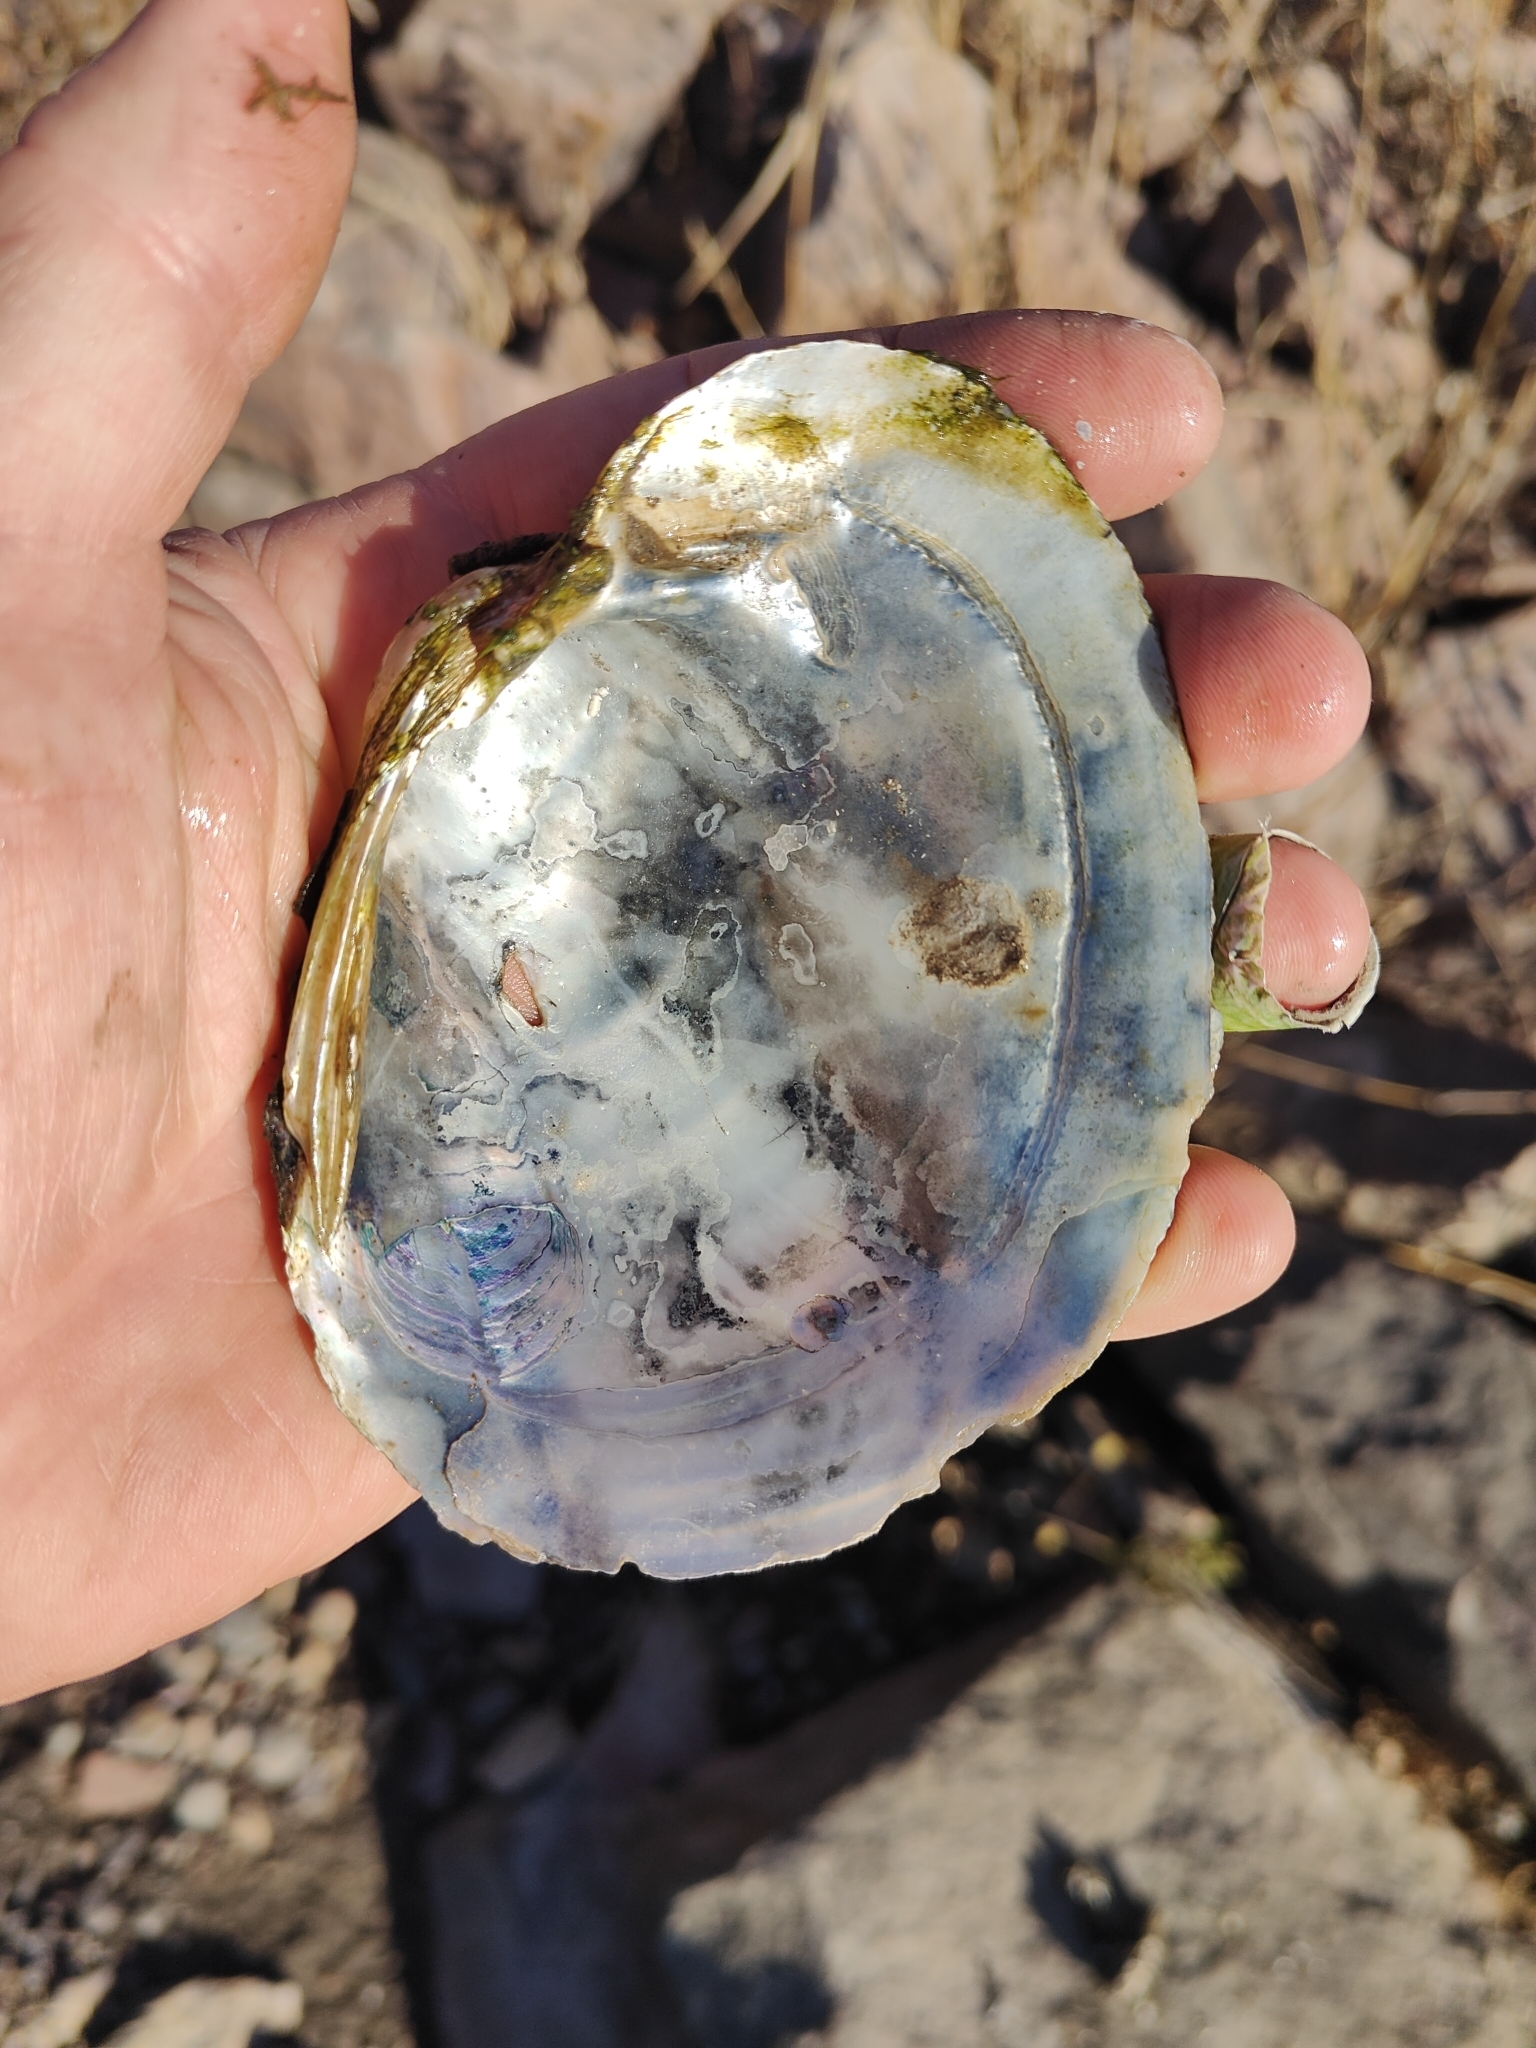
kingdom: Animalia
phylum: Mollusca
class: Bivalvia
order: Unionida
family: Unionidae
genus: Lampsilis
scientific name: Lampsilis cardium
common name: Plain pocketbook
